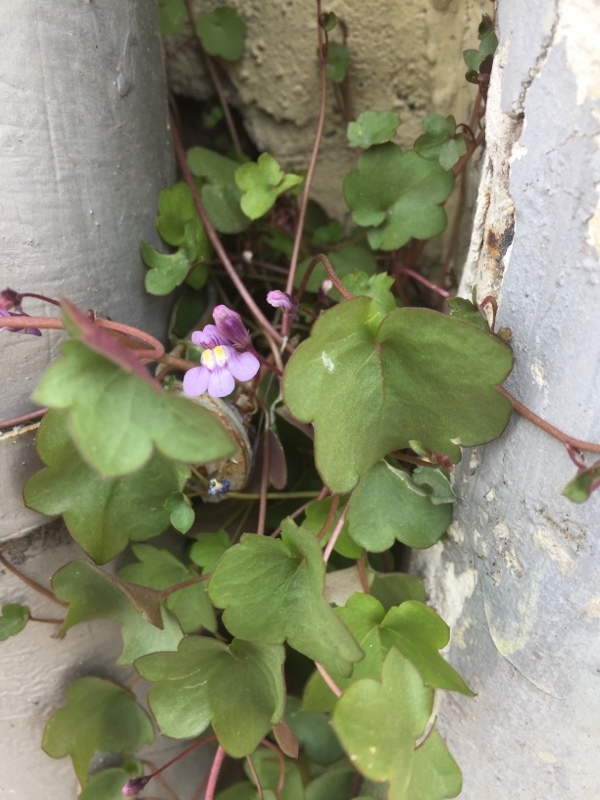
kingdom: Plantae
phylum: Tracheophyta
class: Magnoliopsida
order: Lamiales
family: Plantaginaceae
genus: Cymbalaria
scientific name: Cymbalaria muralis
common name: Ivy-leaved toadflax
